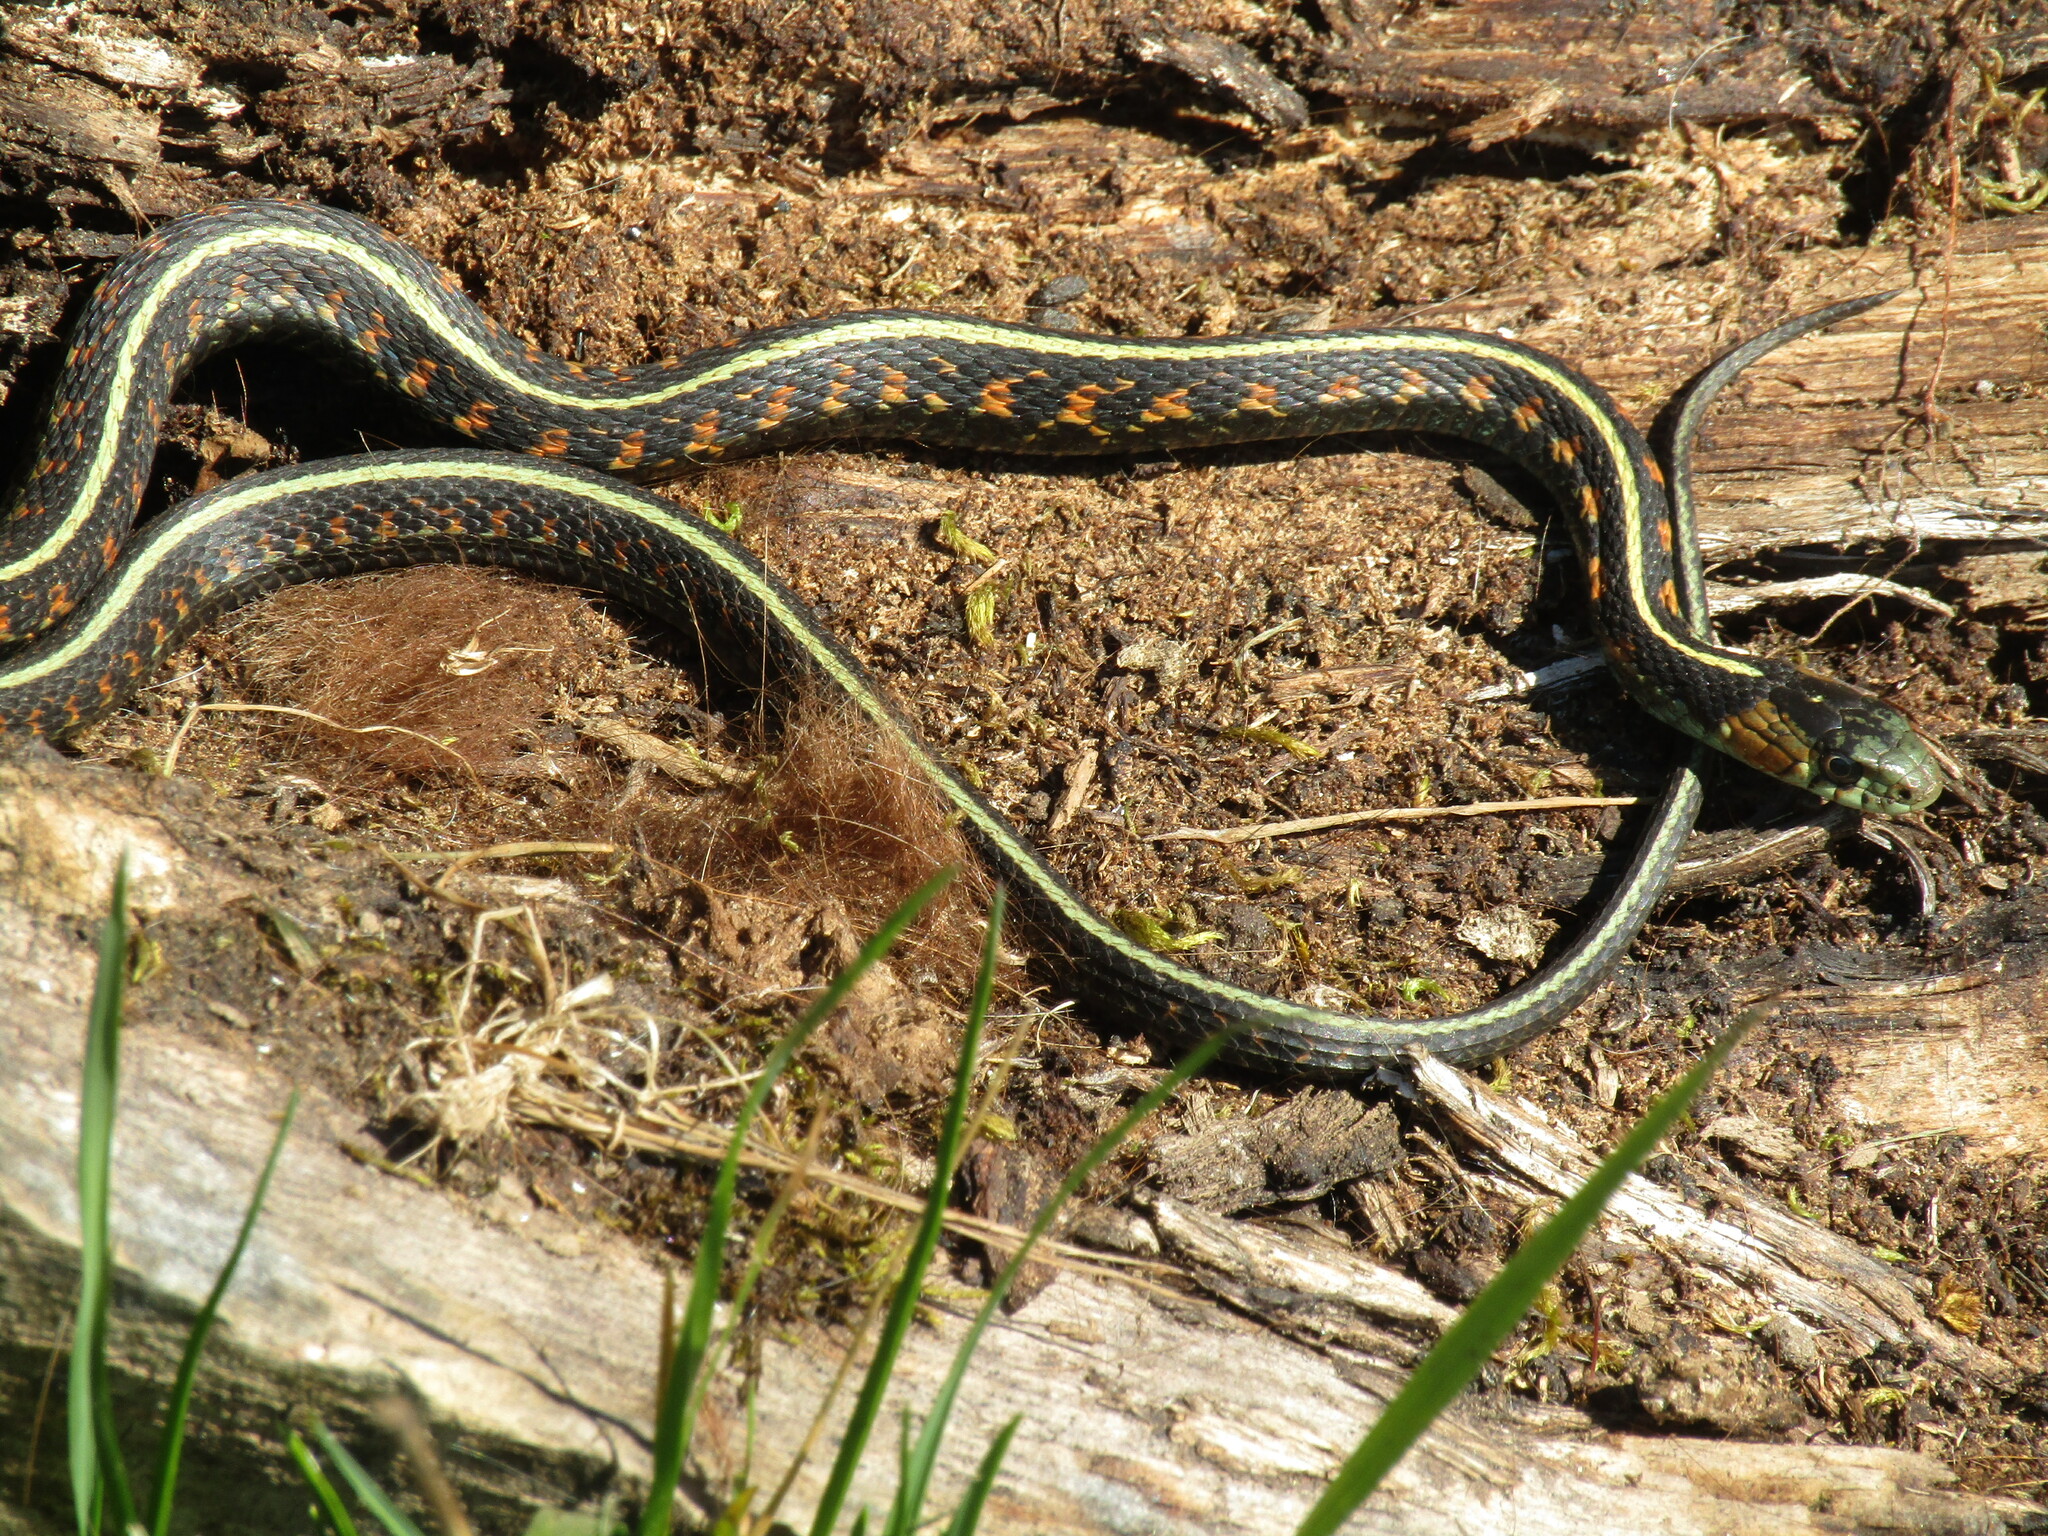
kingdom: Animalia
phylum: Chordata
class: Squamata
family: Colubridae
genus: Thamnophis
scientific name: Thamnophis sirtalis
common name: Common garter snake
